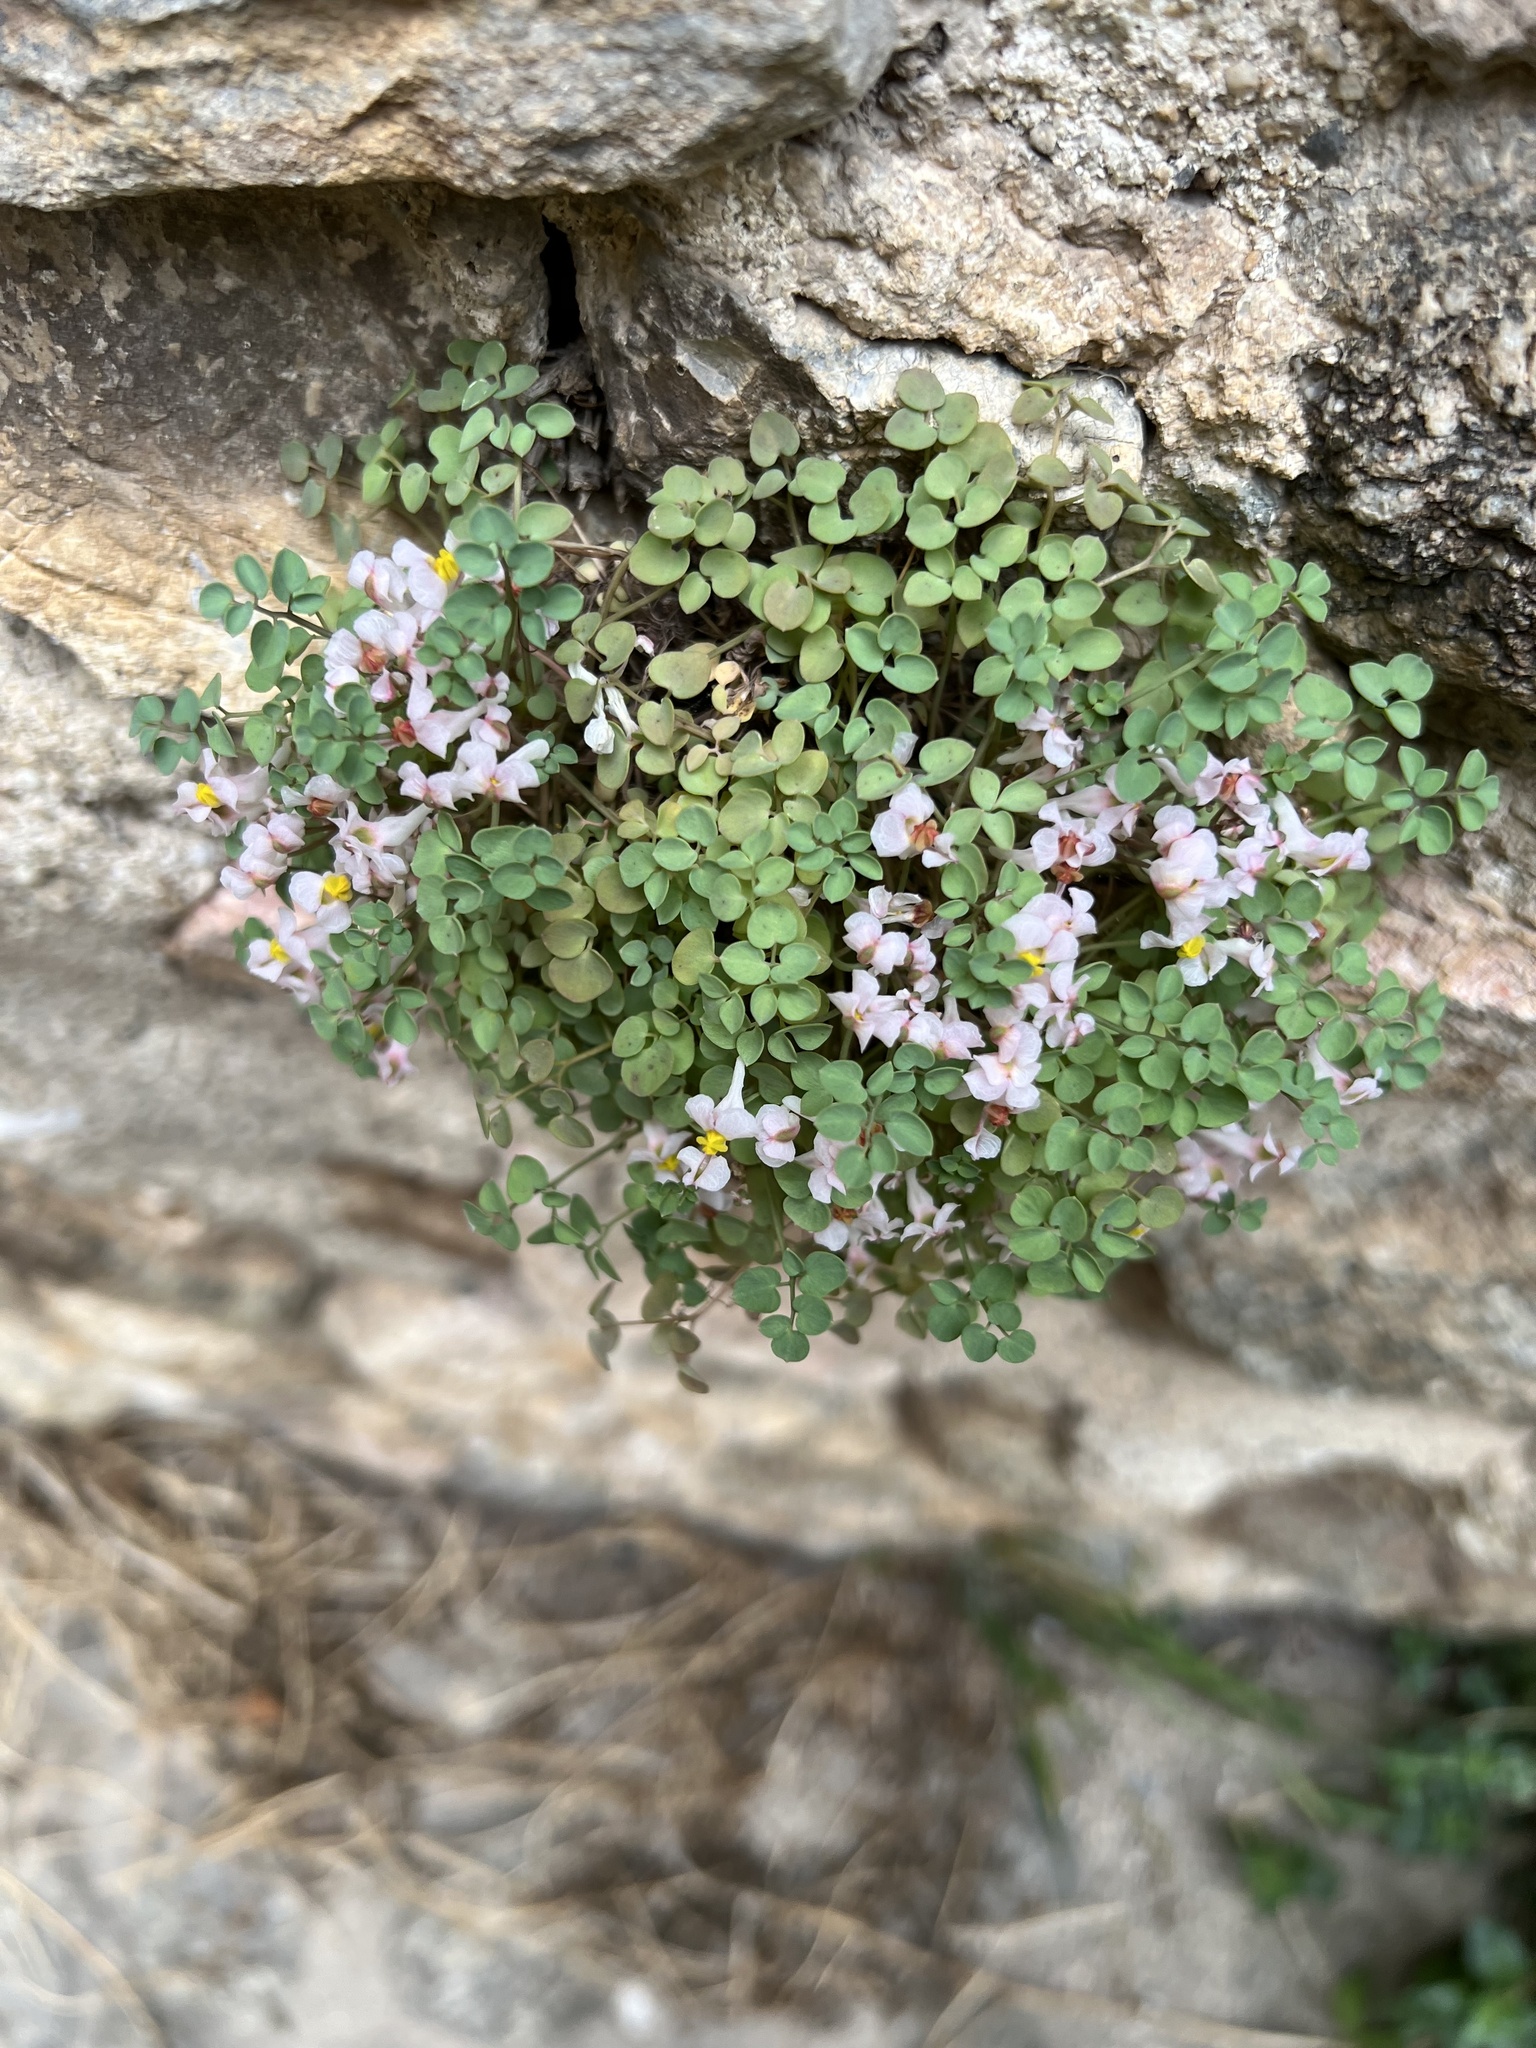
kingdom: Plantae
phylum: Tracheophyta
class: Magnoliopsida
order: Ranunculales
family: Papaveraceae
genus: Sarcocapnos
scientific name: Sarcocapnos enneaphylla
